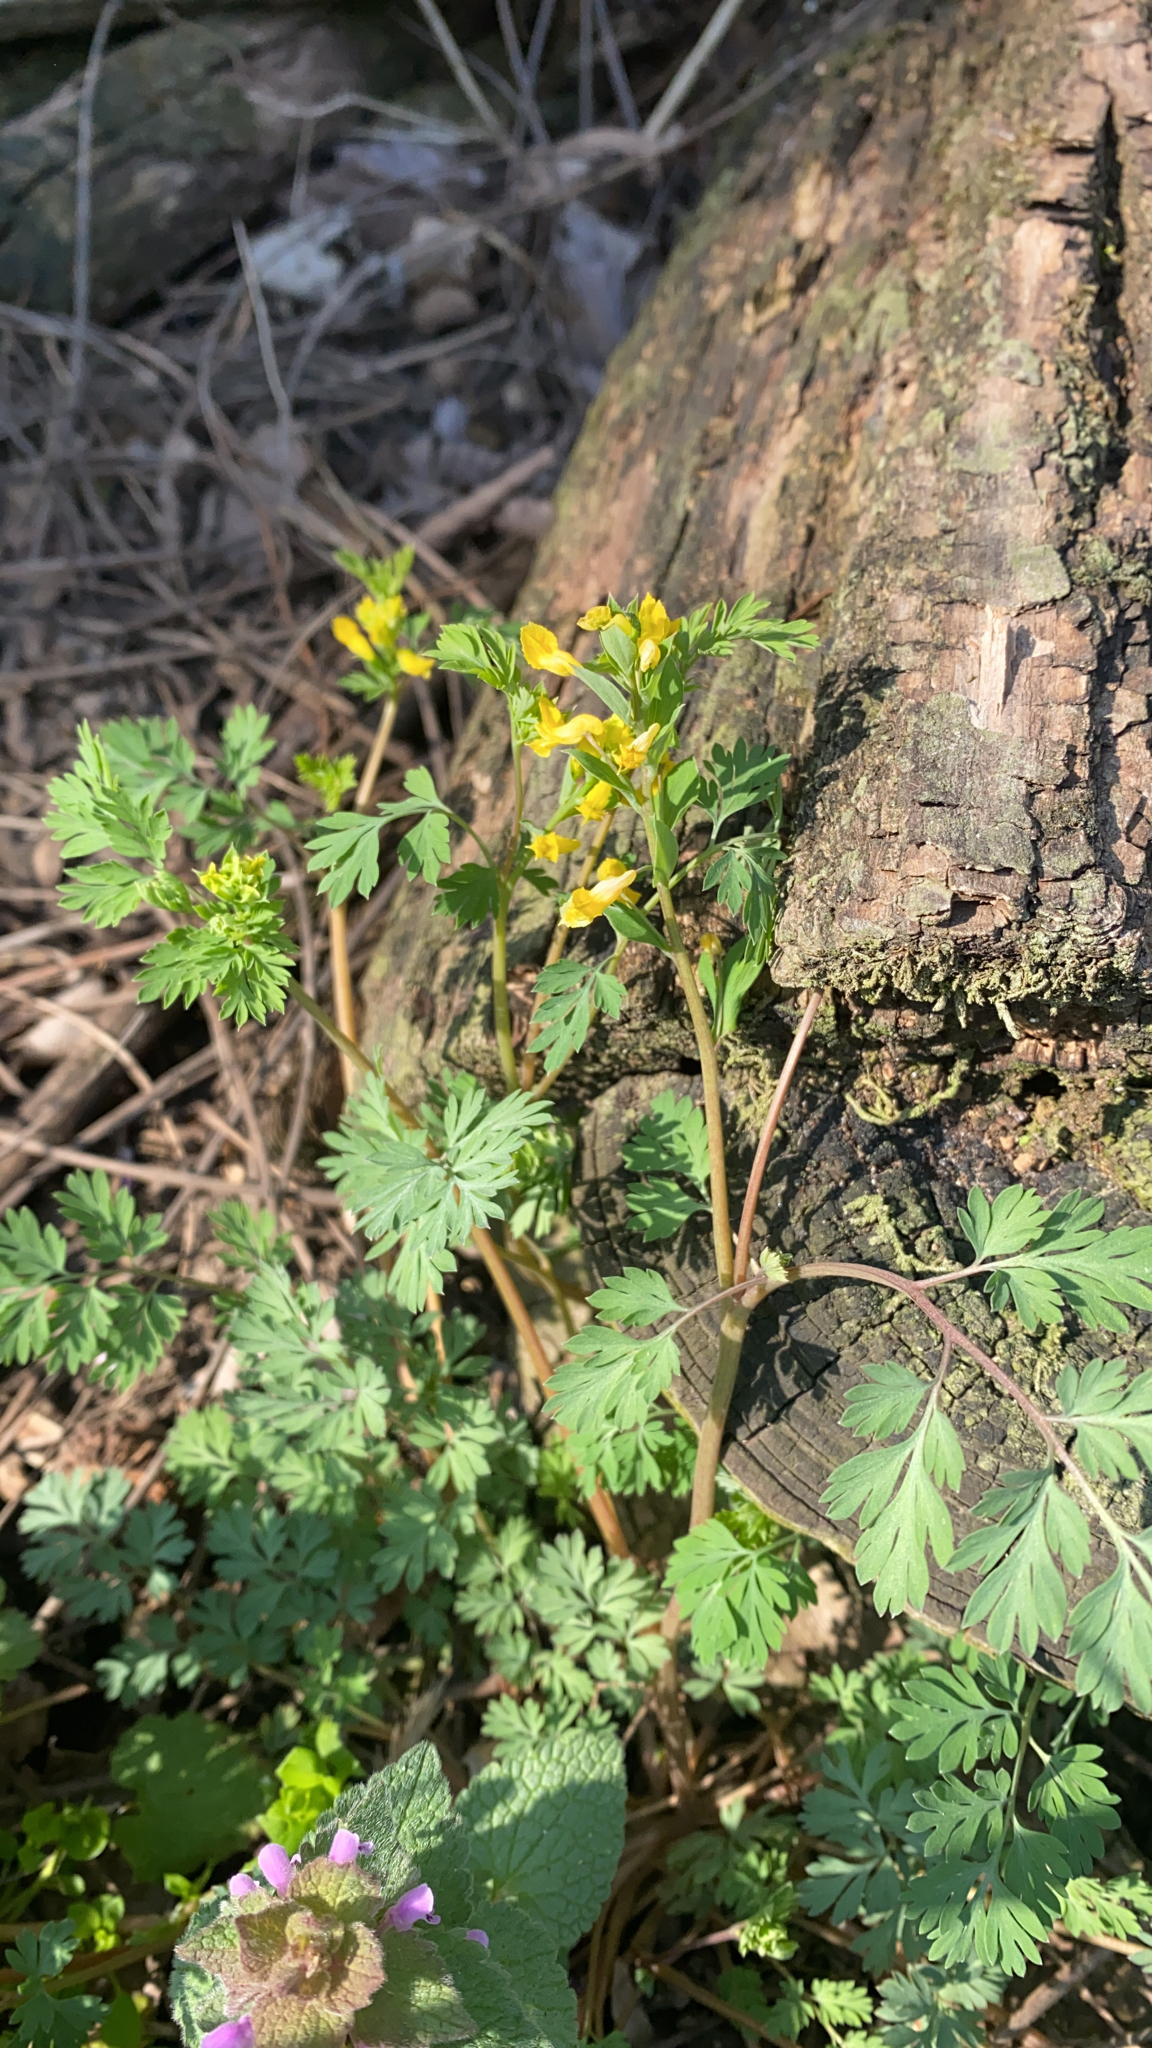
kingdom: Plantae
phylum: Tracheophyta
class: Magnoliopsida
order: Ranunculales
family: Papaveraceae
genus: Corydalis
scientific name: Corydalis flavula
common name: Yellow corydalis
